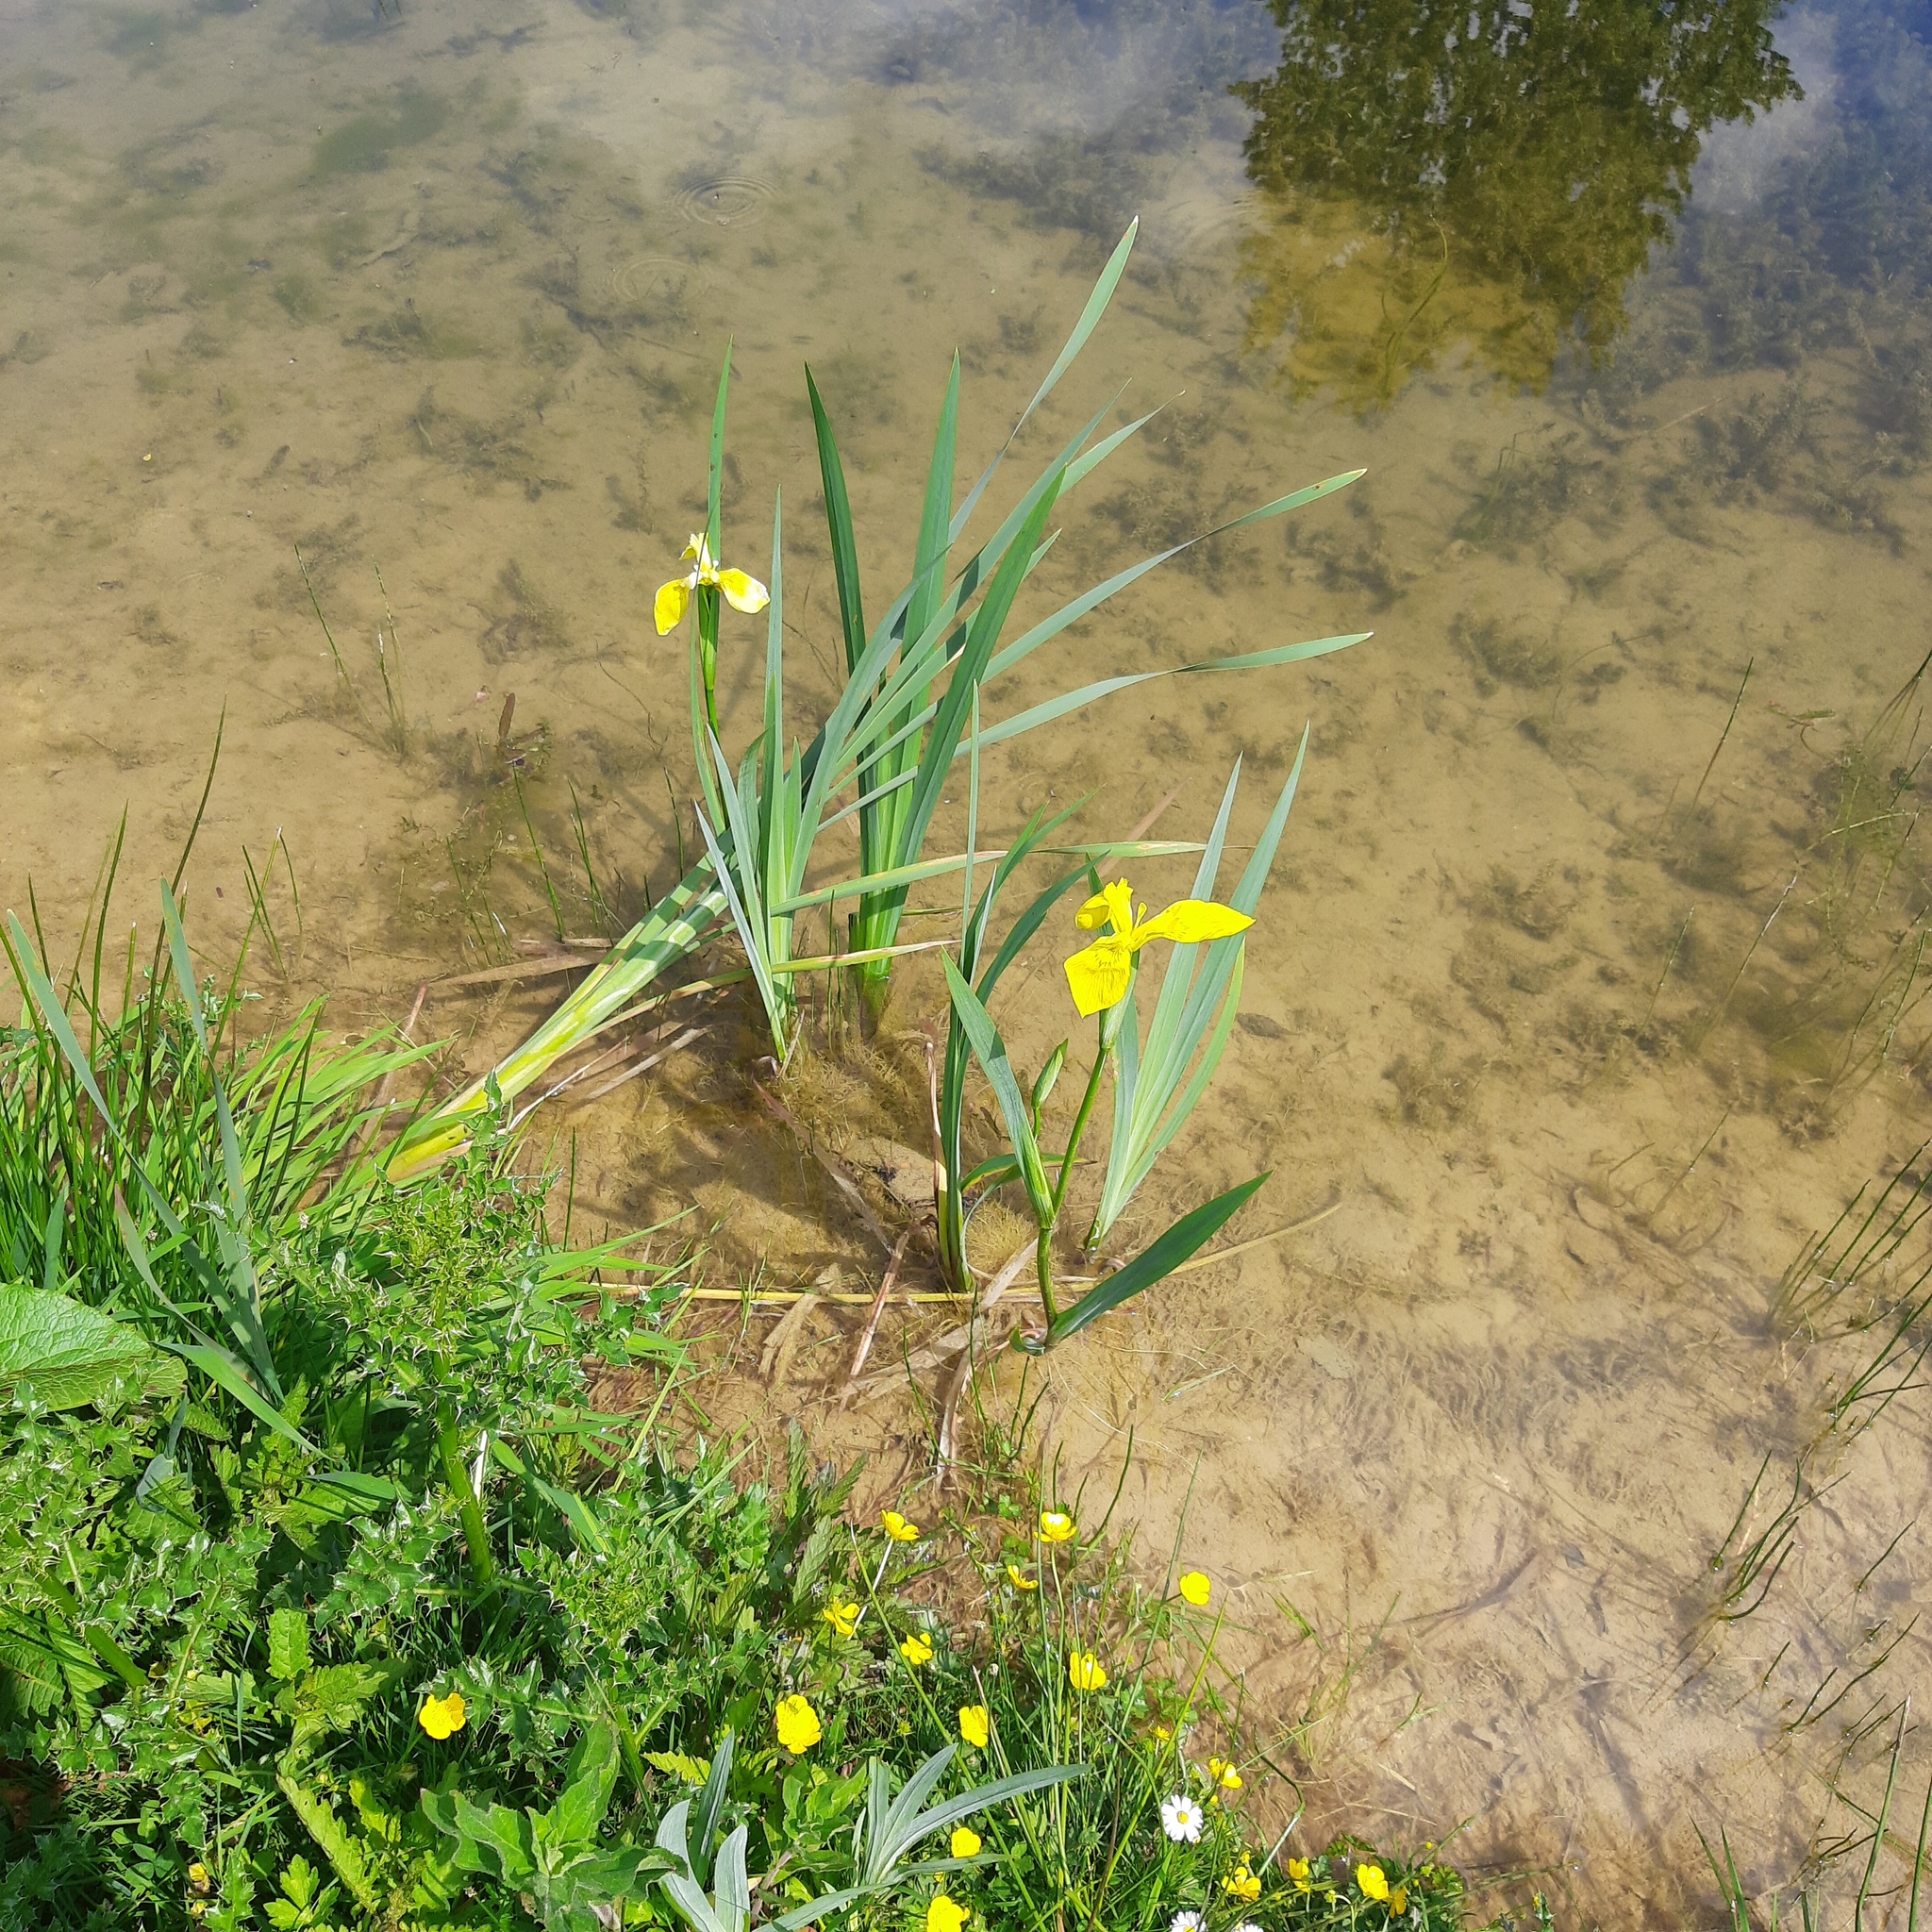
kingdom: Plantae
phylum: Tracheophyta
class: Liliopsida
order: Asparagales
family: Iridaceae
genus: Iris
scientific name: Iris pseudacorus
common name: Yellow flag
